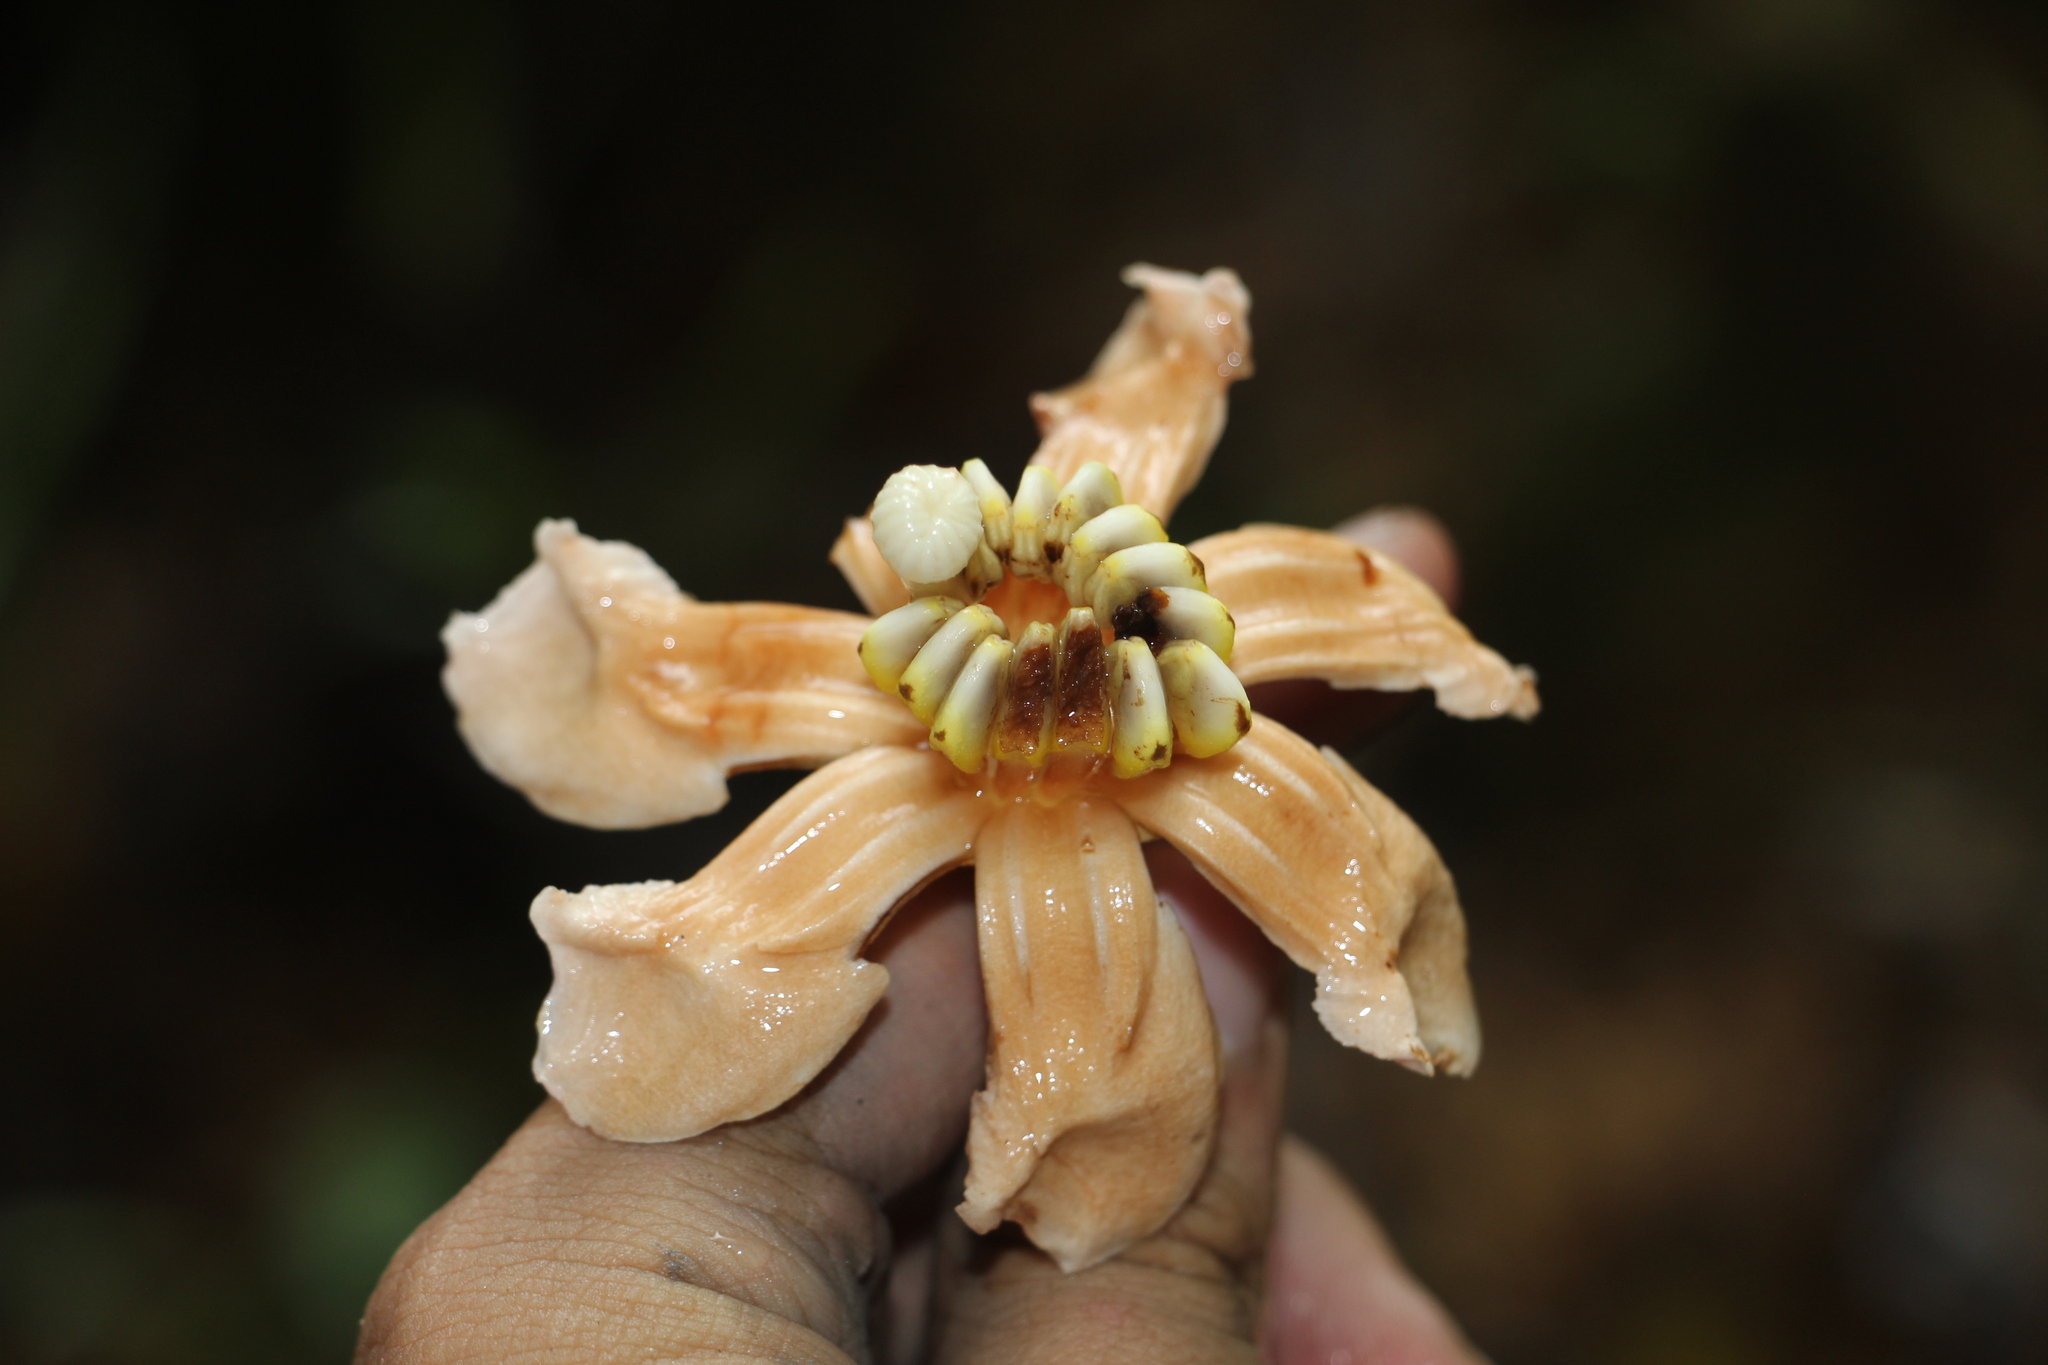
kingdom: Plantae
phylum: Tracheophyta
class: Magnoliopsida
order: Myrtales
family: Melastomataceae
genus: Bellucia
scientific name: Bellucia pentamera
